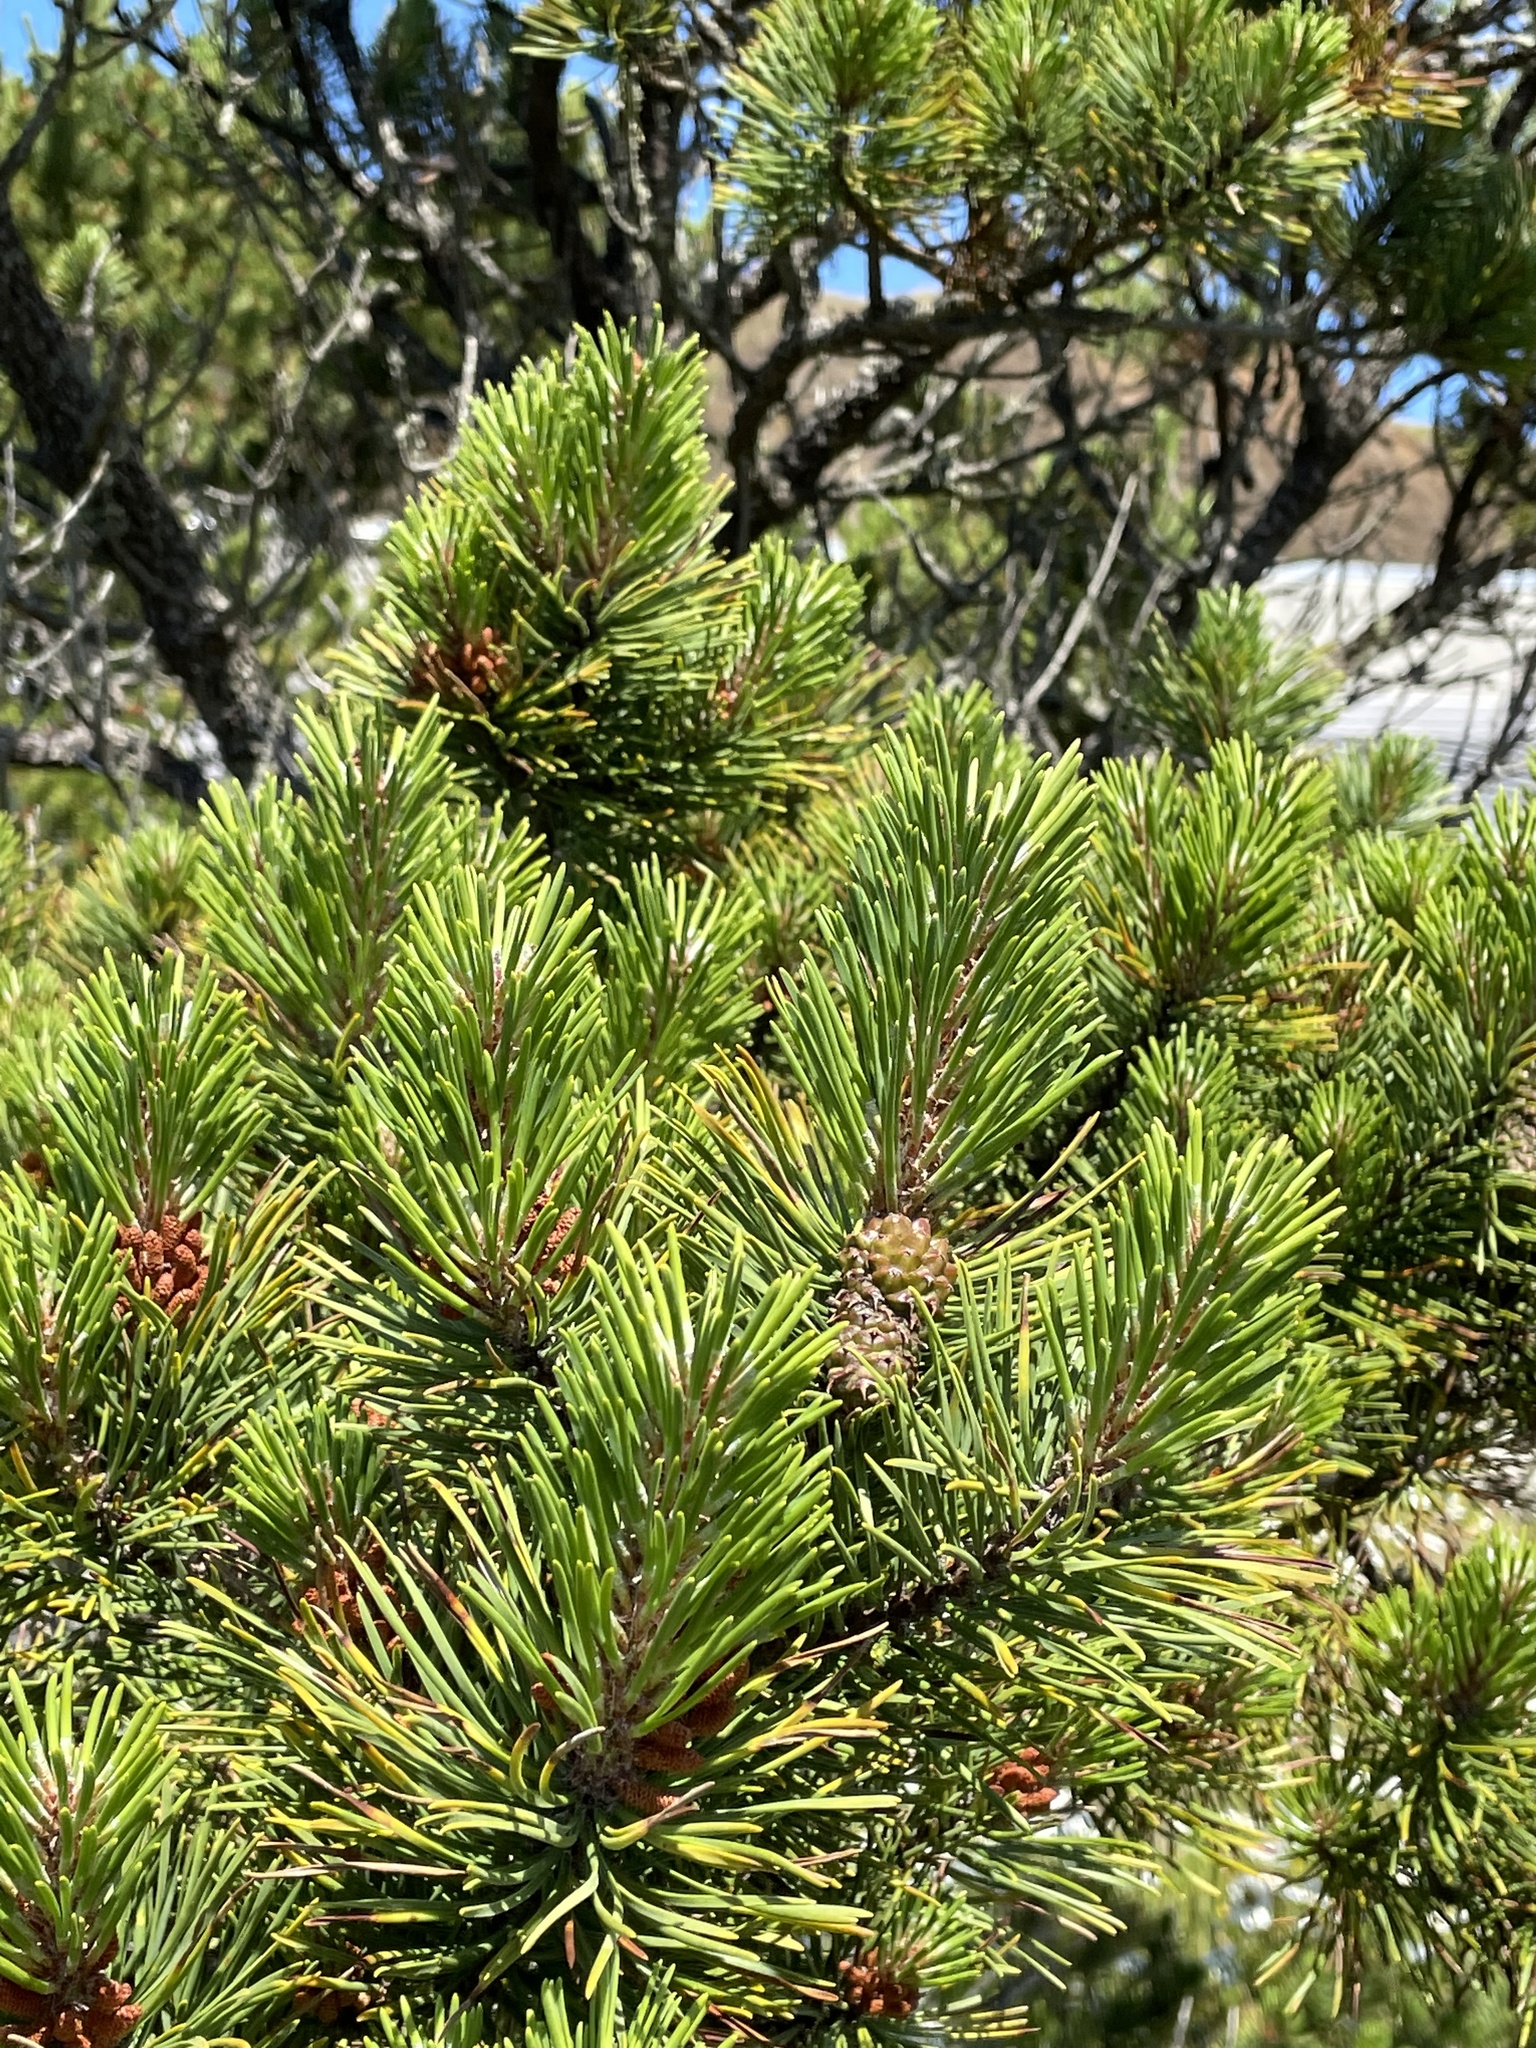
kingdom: Plantae
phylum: Tracheophyta
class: Pinopsida
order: Pinales
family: Pinaceae
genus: Pinus
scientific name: Pinus contorta
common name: Lodgepole pine
